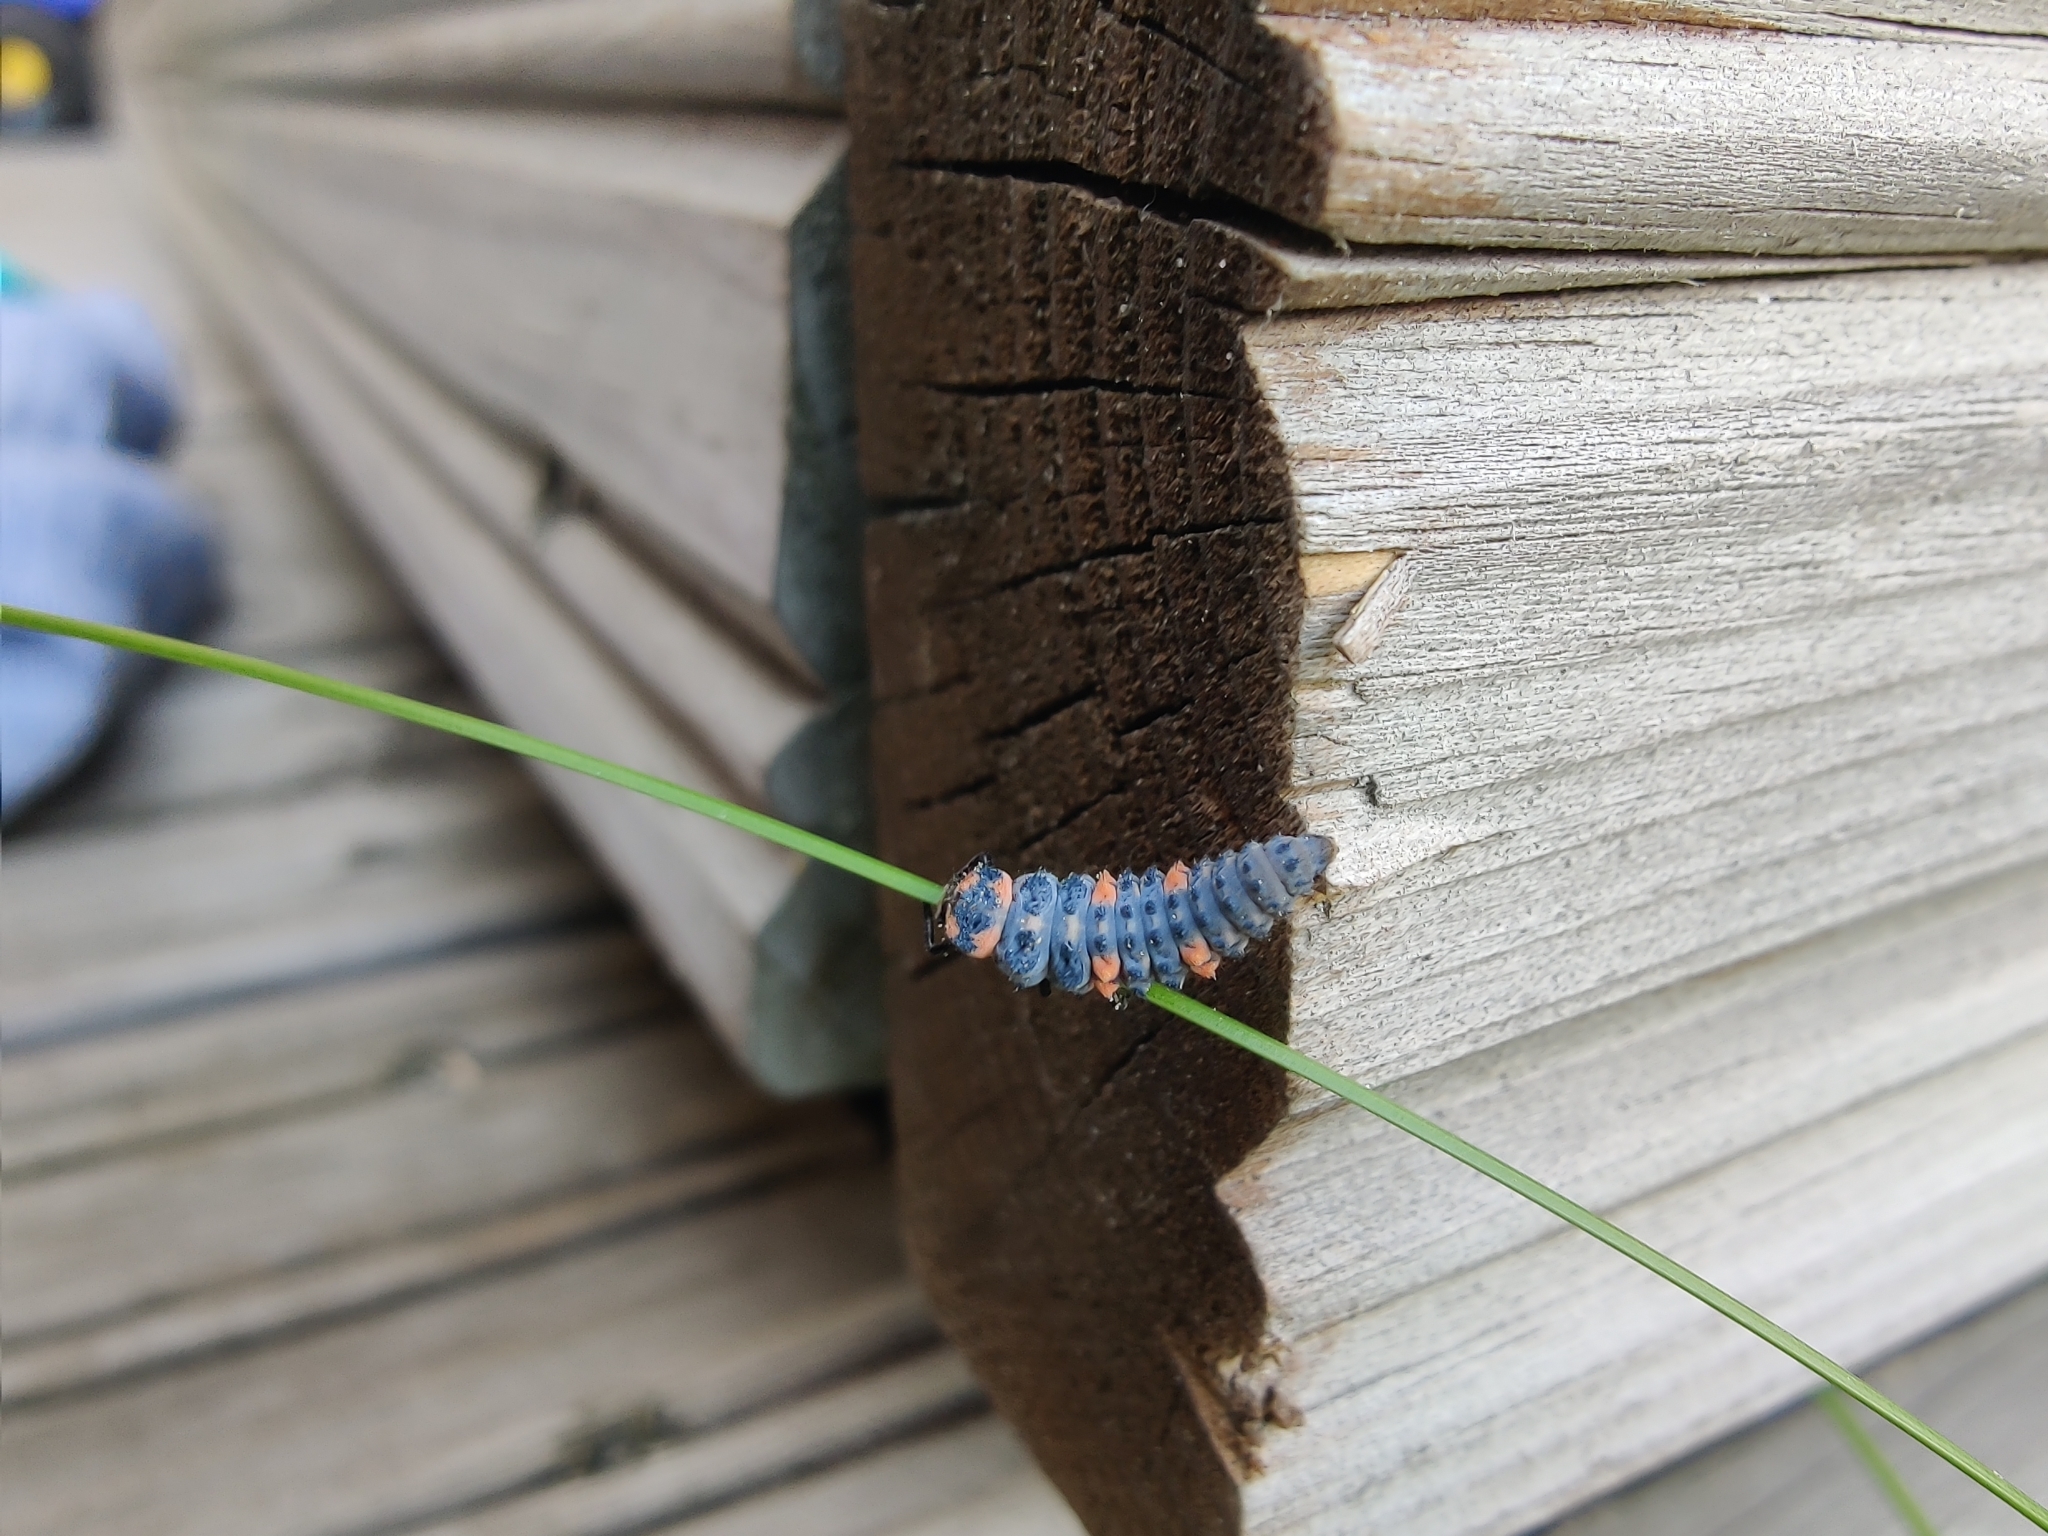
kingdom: Animalia
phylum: Arthropoda
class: Insecta
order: Coleoptera
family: Coccinellidae
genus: Coccinella
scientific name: Coccinella septempunctata
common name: Sevenspotted lady beetle
